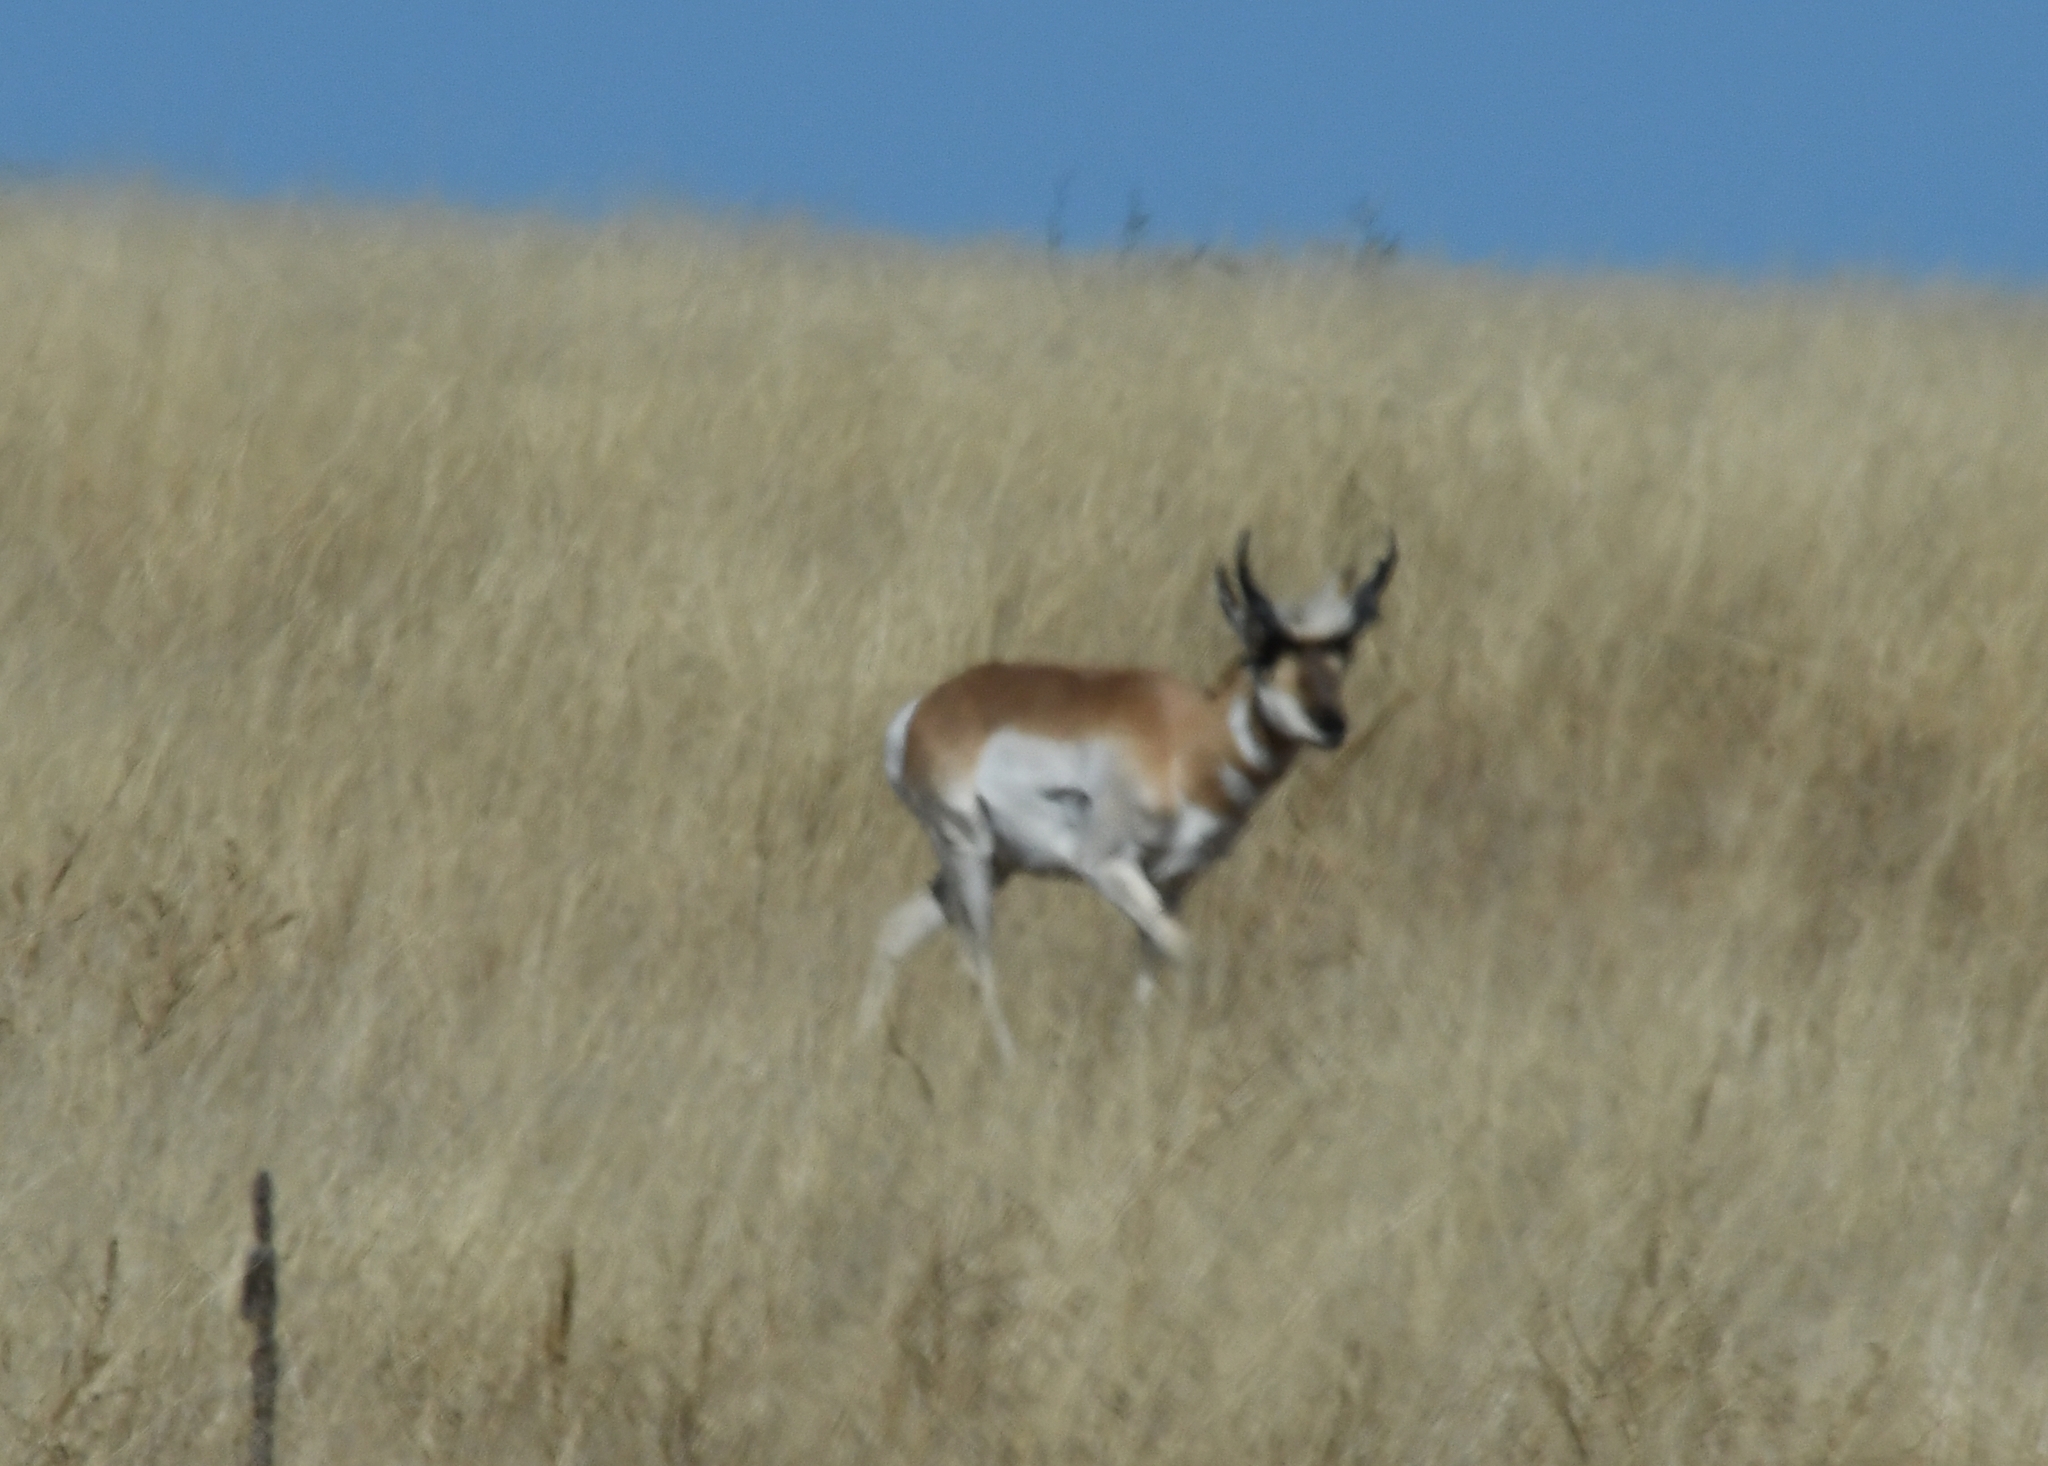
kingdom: Animalia
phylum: Chordata
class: Mammalia
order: Artiodactyla
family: Antilocapridae
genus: Antilocapra
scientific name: Antilocapra americana
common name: Pronghorn
